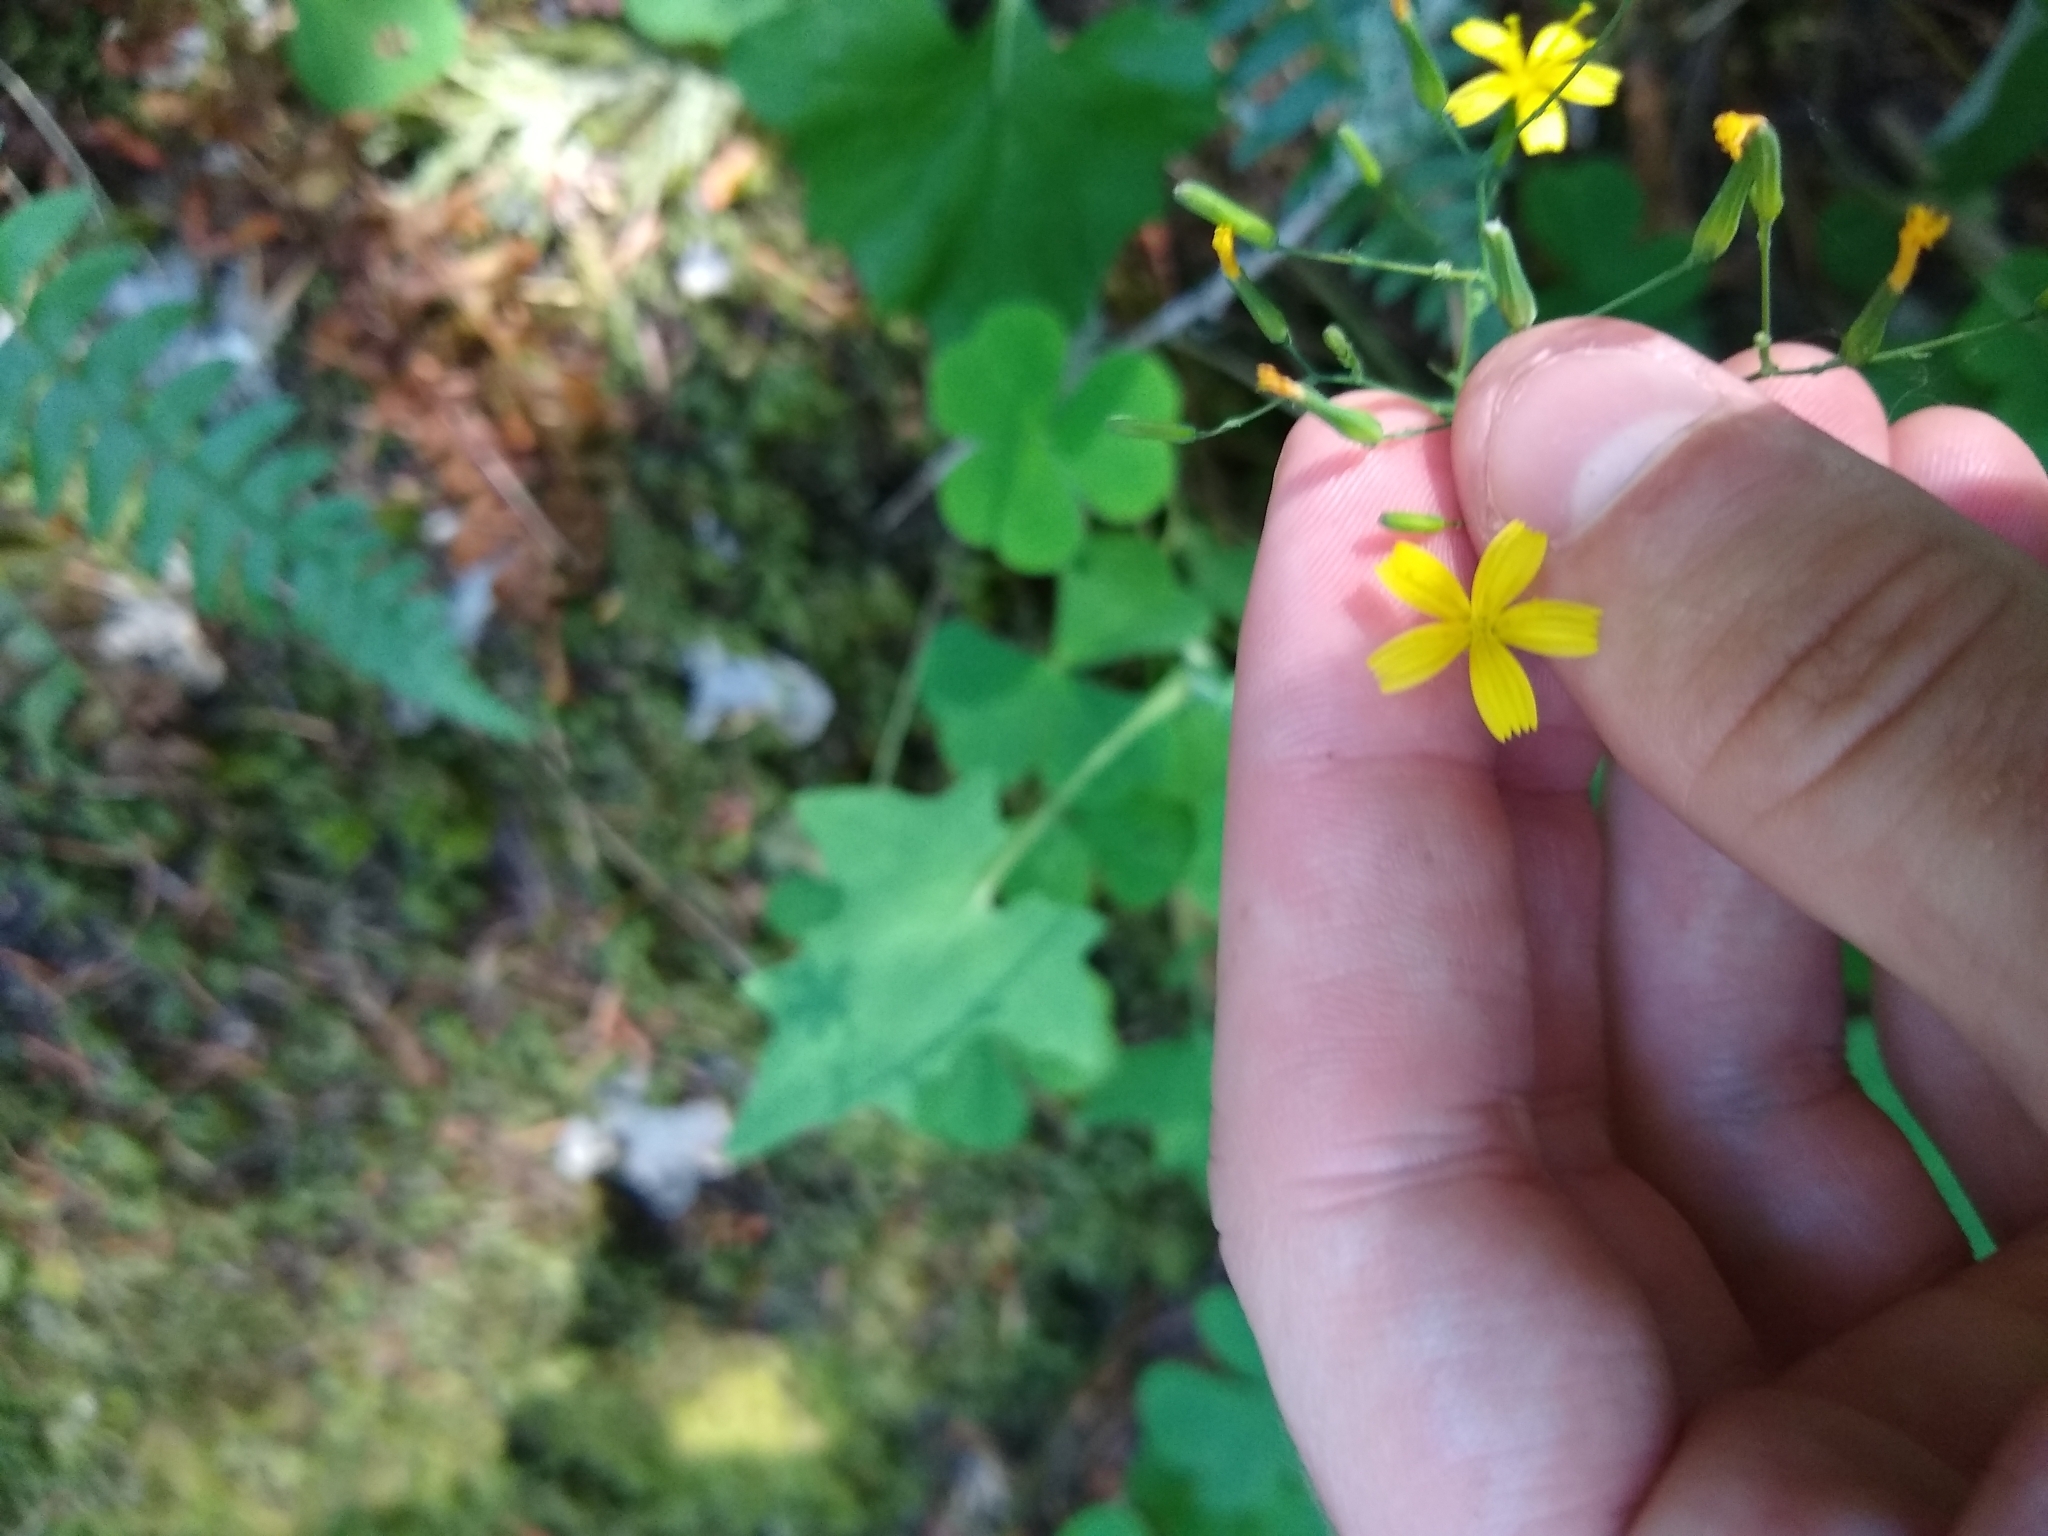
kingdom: Plantae
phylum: Tracheophyta
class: Magnoliopsida
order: Asterales
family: Asteraceae
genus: Mycelis
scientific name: Mycelis muralis
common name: Wall lettuce
